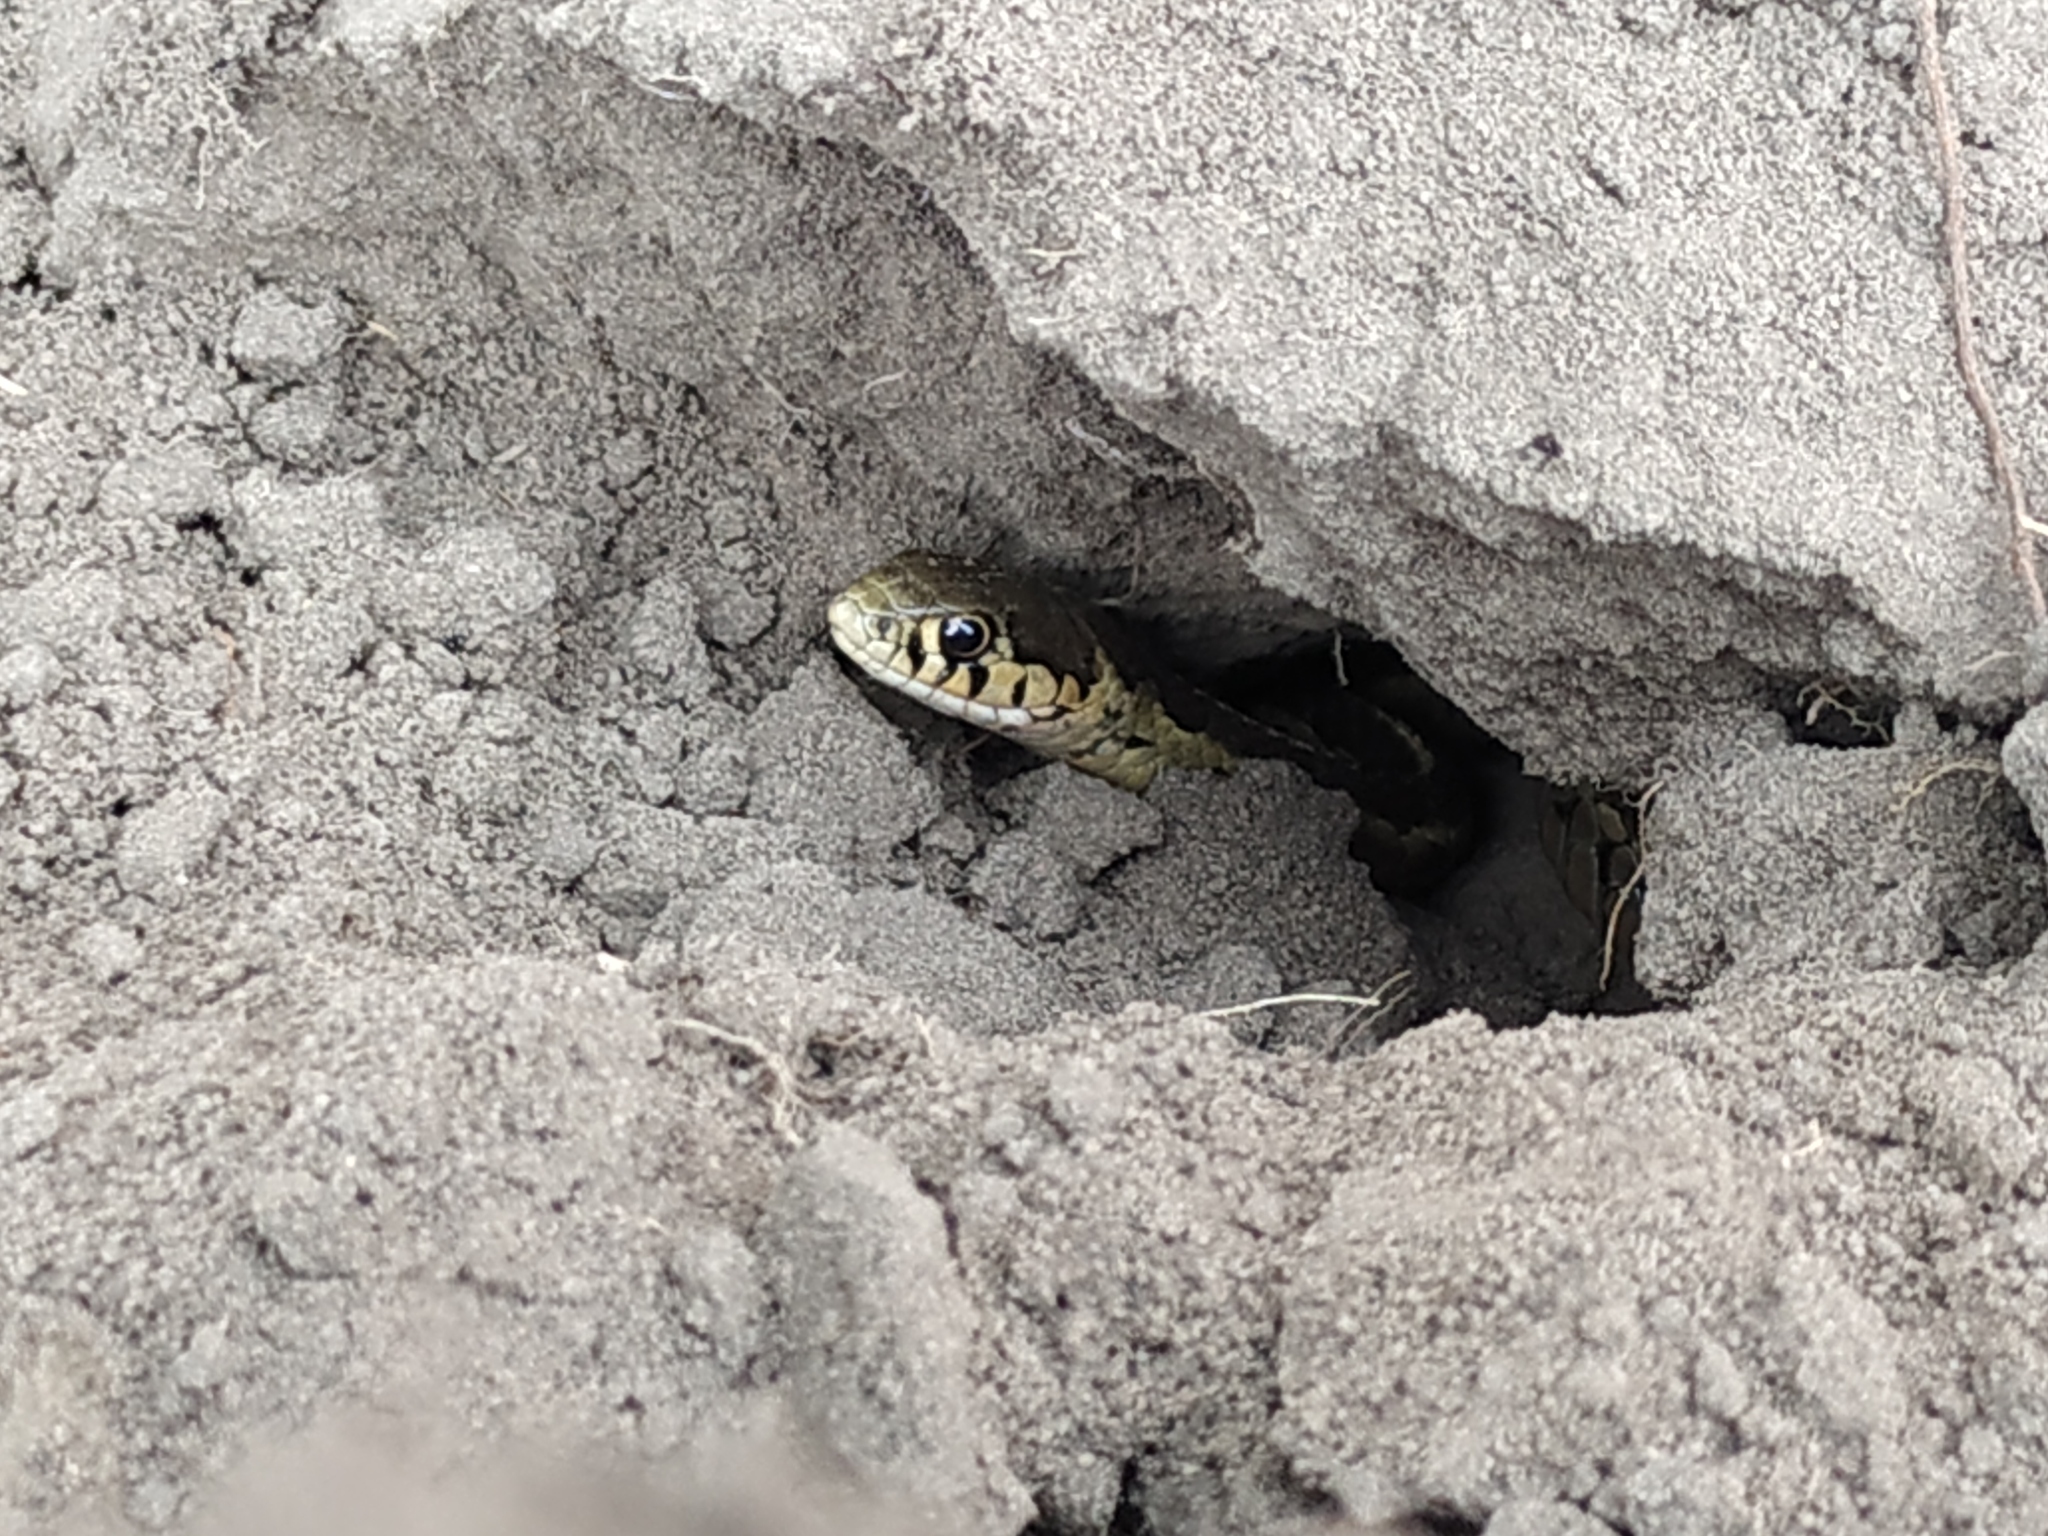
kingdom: Animalia
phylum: Chordata
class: Squamata
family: Colubridae
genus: Thamnophis
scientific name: Thamnophis scalaris
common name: Longtail alpine garter snake
